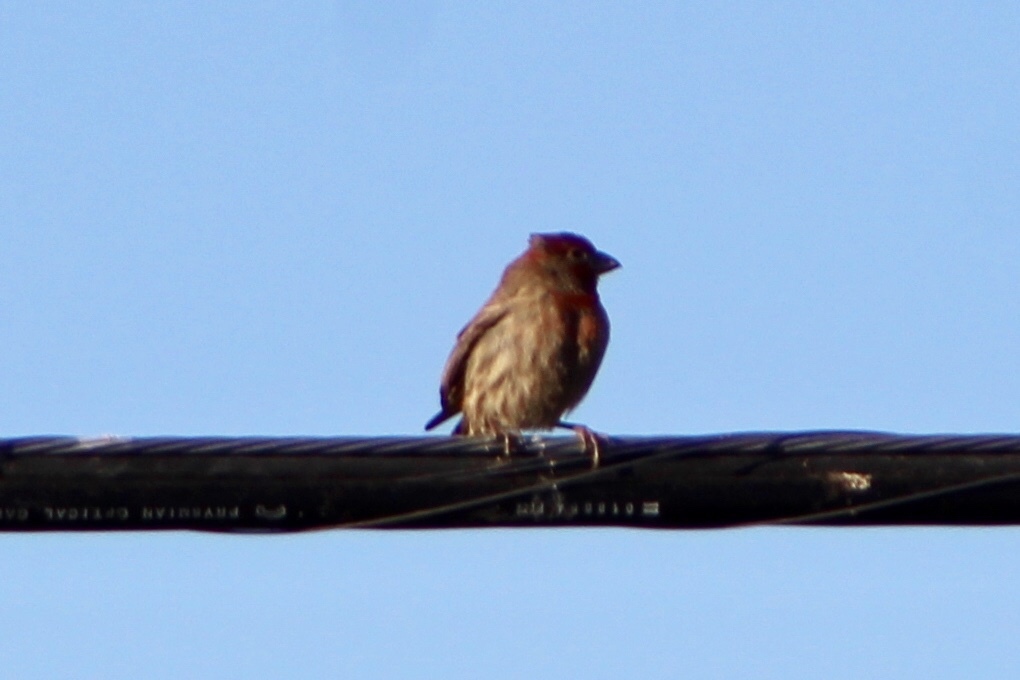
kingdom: Animalia
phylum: Chordata
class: Aves
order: Passeriformes
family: Fringillidae
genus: Haemorhous
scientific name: Haemorhous mexicanus
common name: House finch
